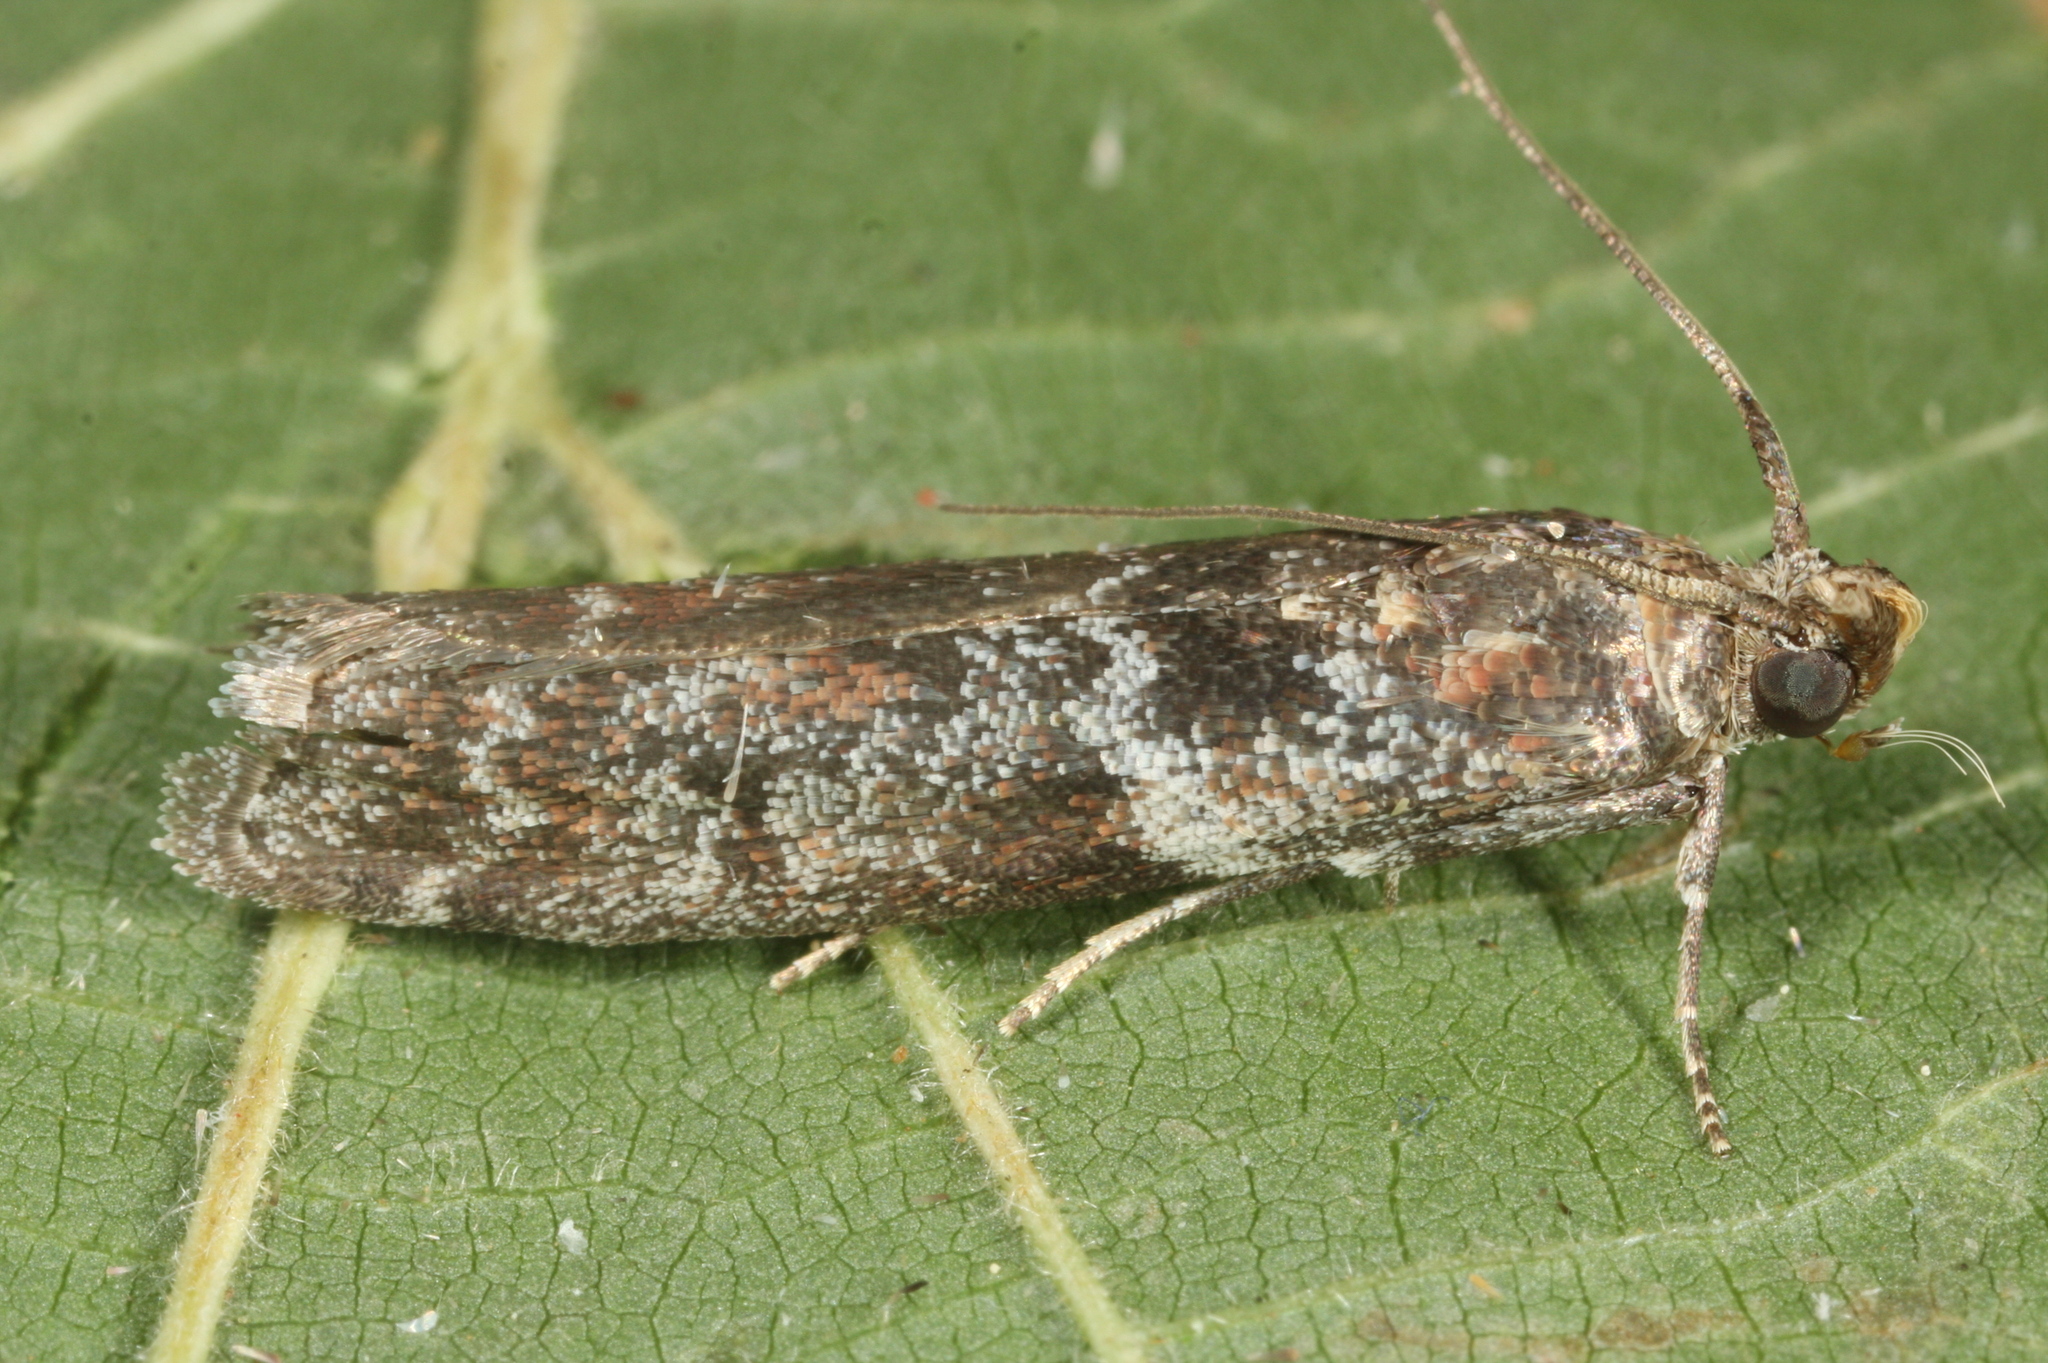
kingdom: Animalia
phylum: Arthropoda
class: Insecta
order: Lepidoptera
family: Pyralidae
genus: Oncocera
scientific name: Oncocera Laodamia faecella
